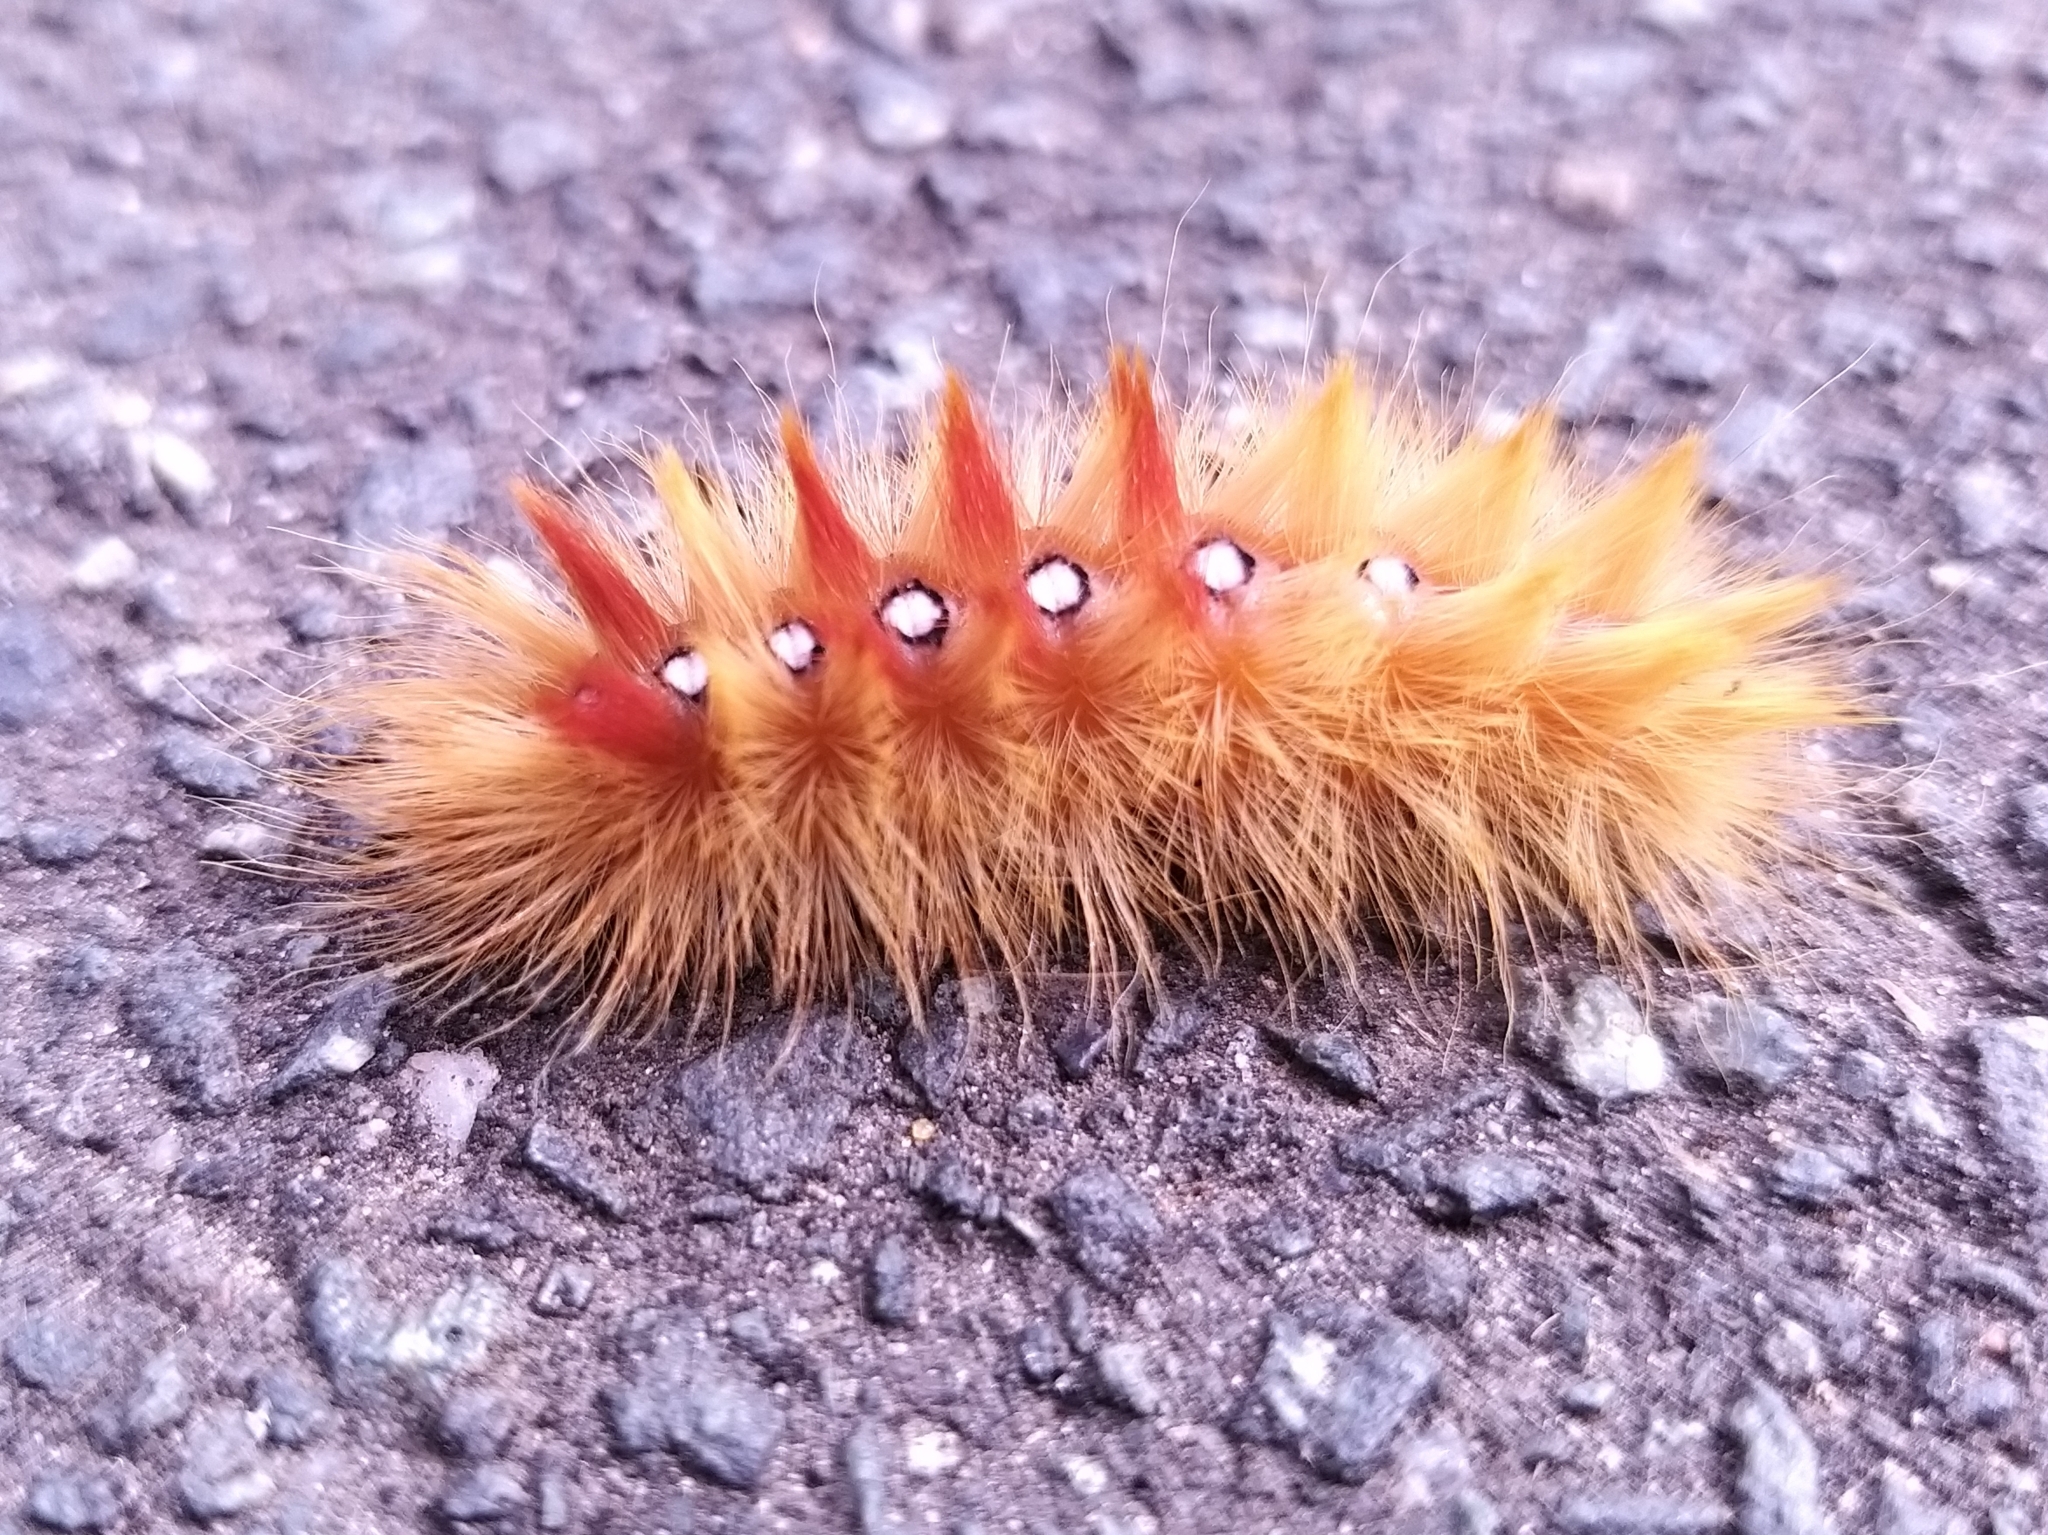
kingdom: Animalia
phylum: Arthropoda
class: Insecta
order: Lepidoptera
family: Noctuidae
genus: Acronicta
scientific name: Acronicta aceris
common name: Sycamore
